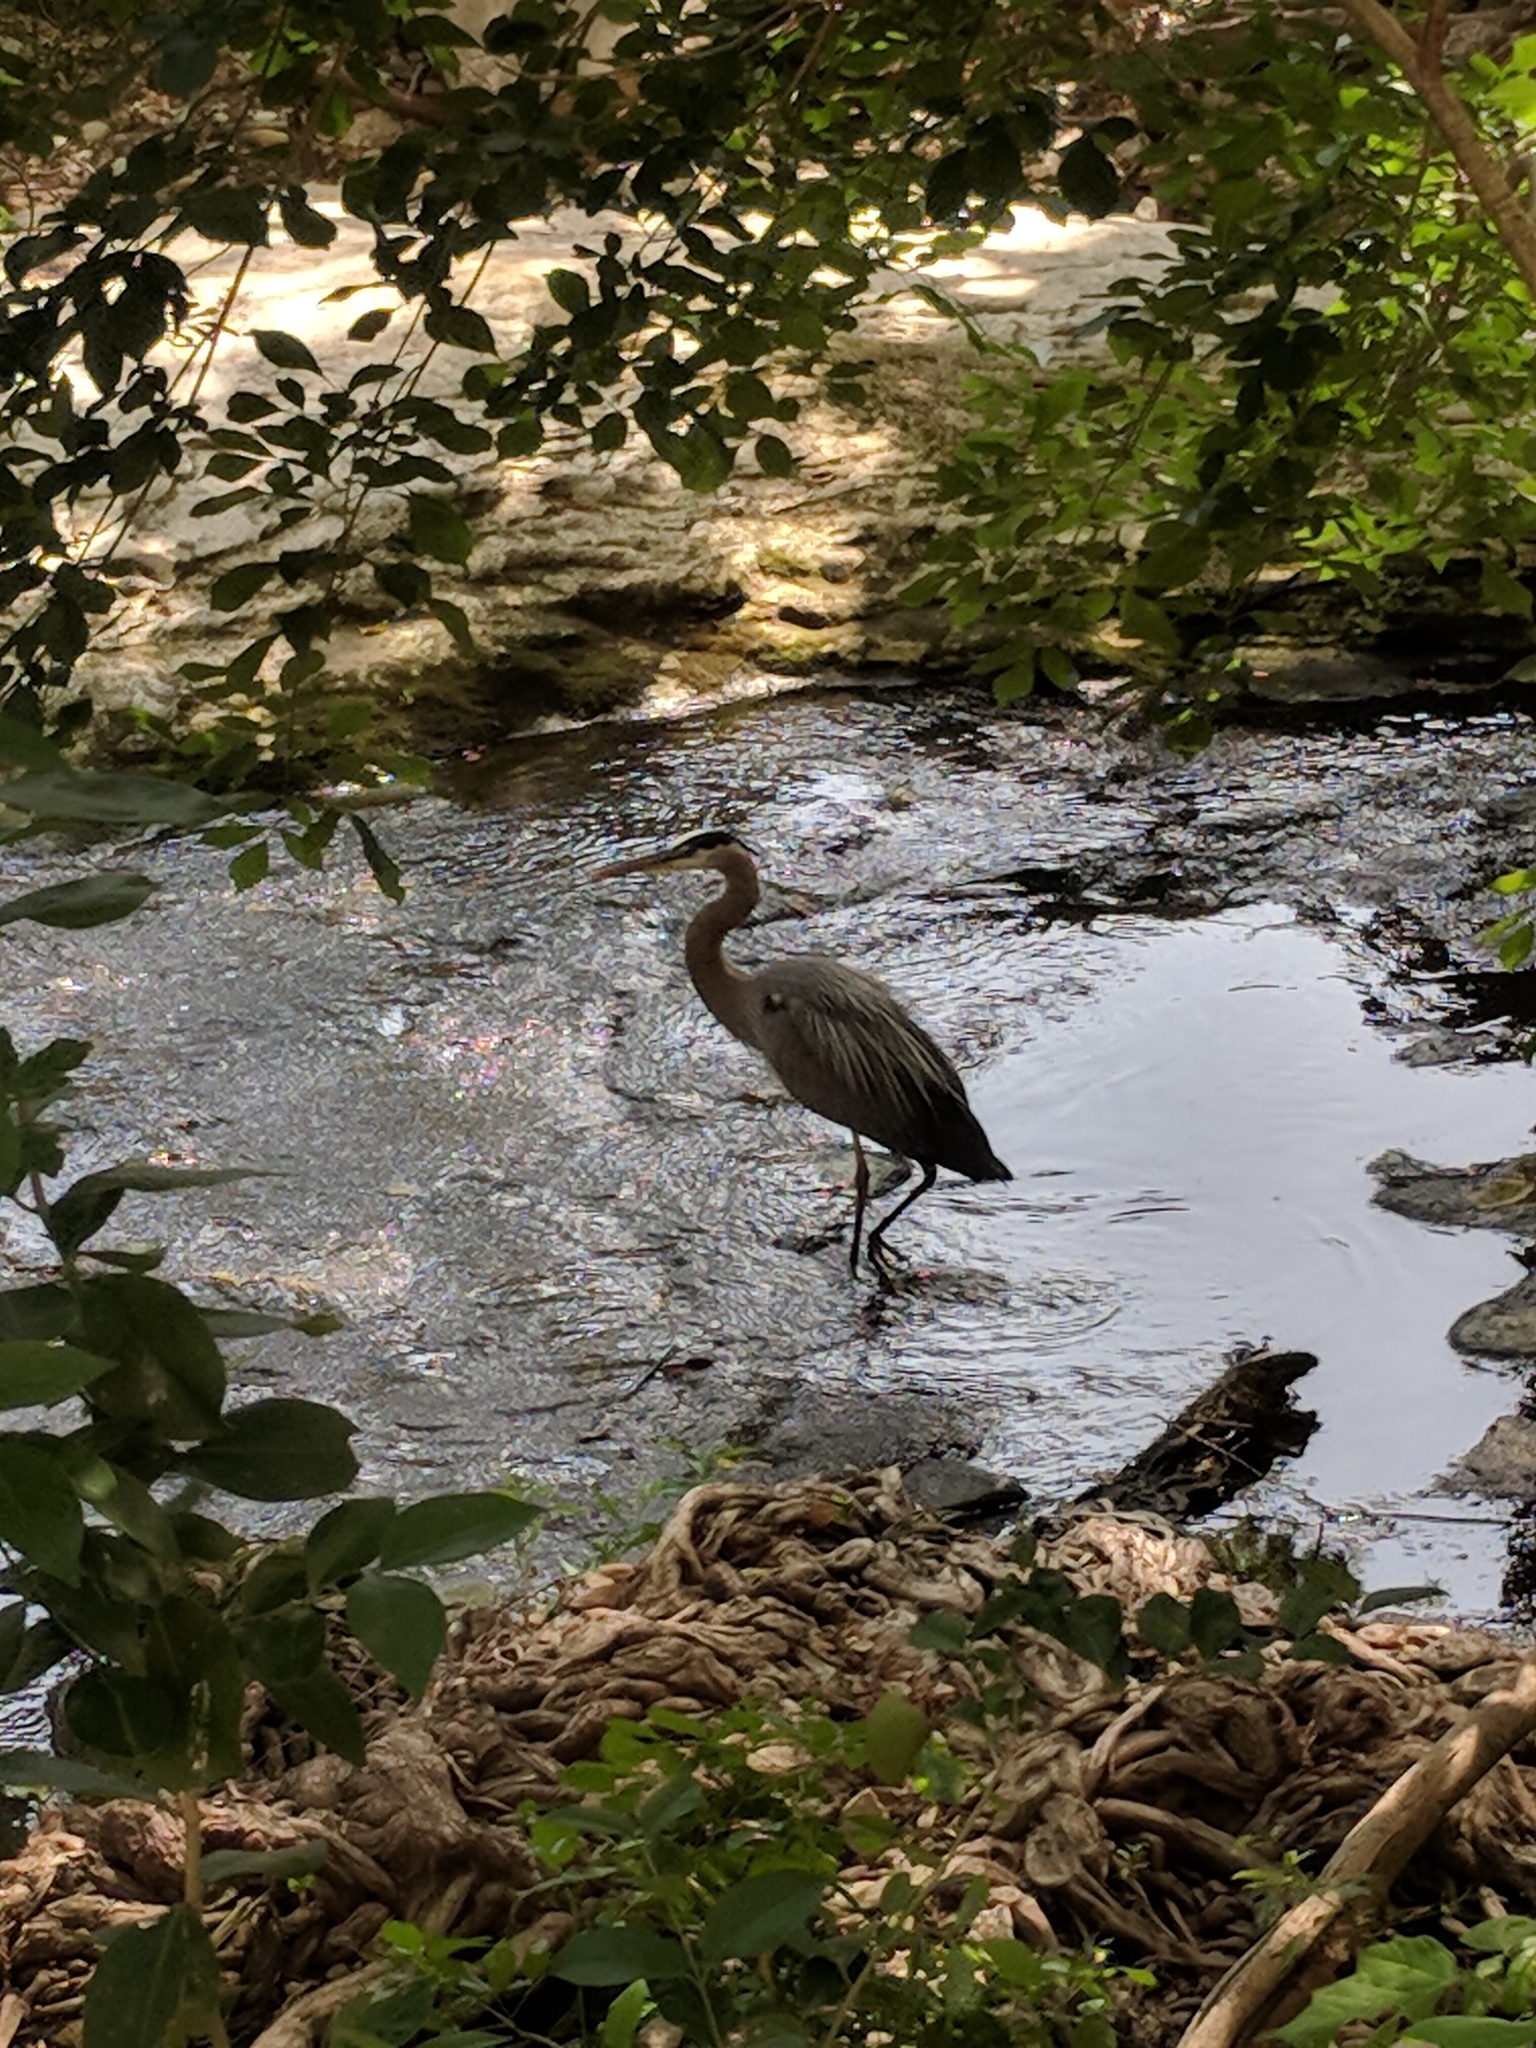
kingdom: Animalia
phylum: Chordata
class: Aves
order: Pelecaniformes
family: Ardeidae
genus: Ardea
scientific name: Ardea herodias
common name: Great blue heron
